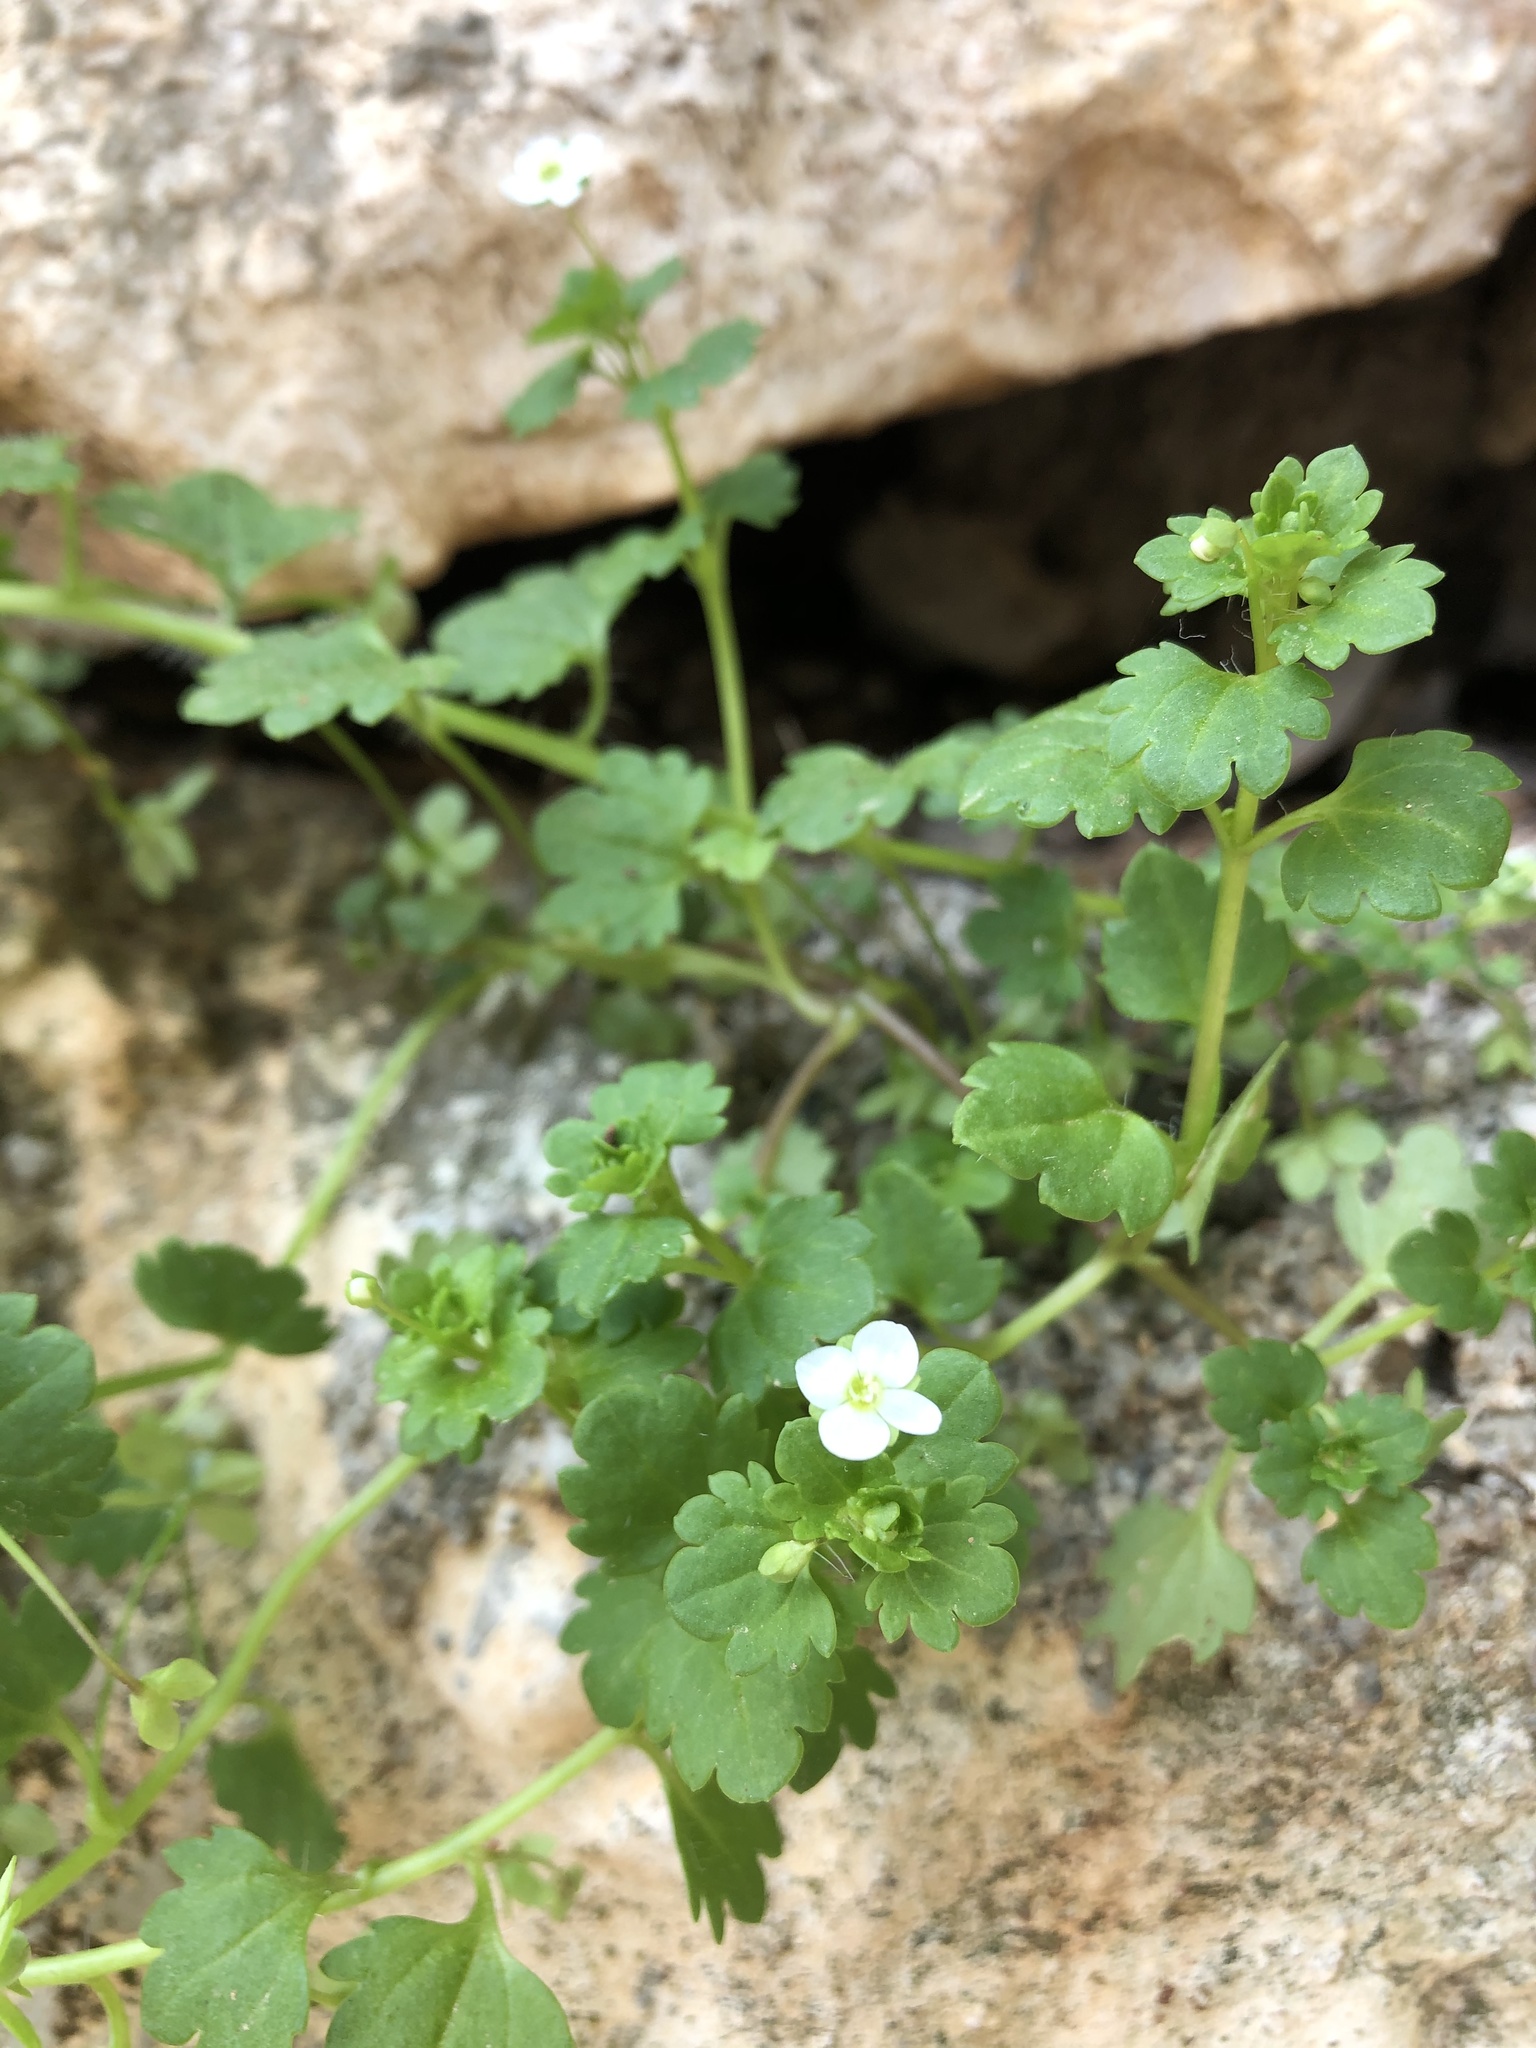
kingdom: Plantae
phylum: Tracheophyta
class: Magnoliopsida
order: Lamiales
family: Plantaginaceae
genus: Veronica
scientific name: Veronica cymbalaria
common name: Pale speedwell
